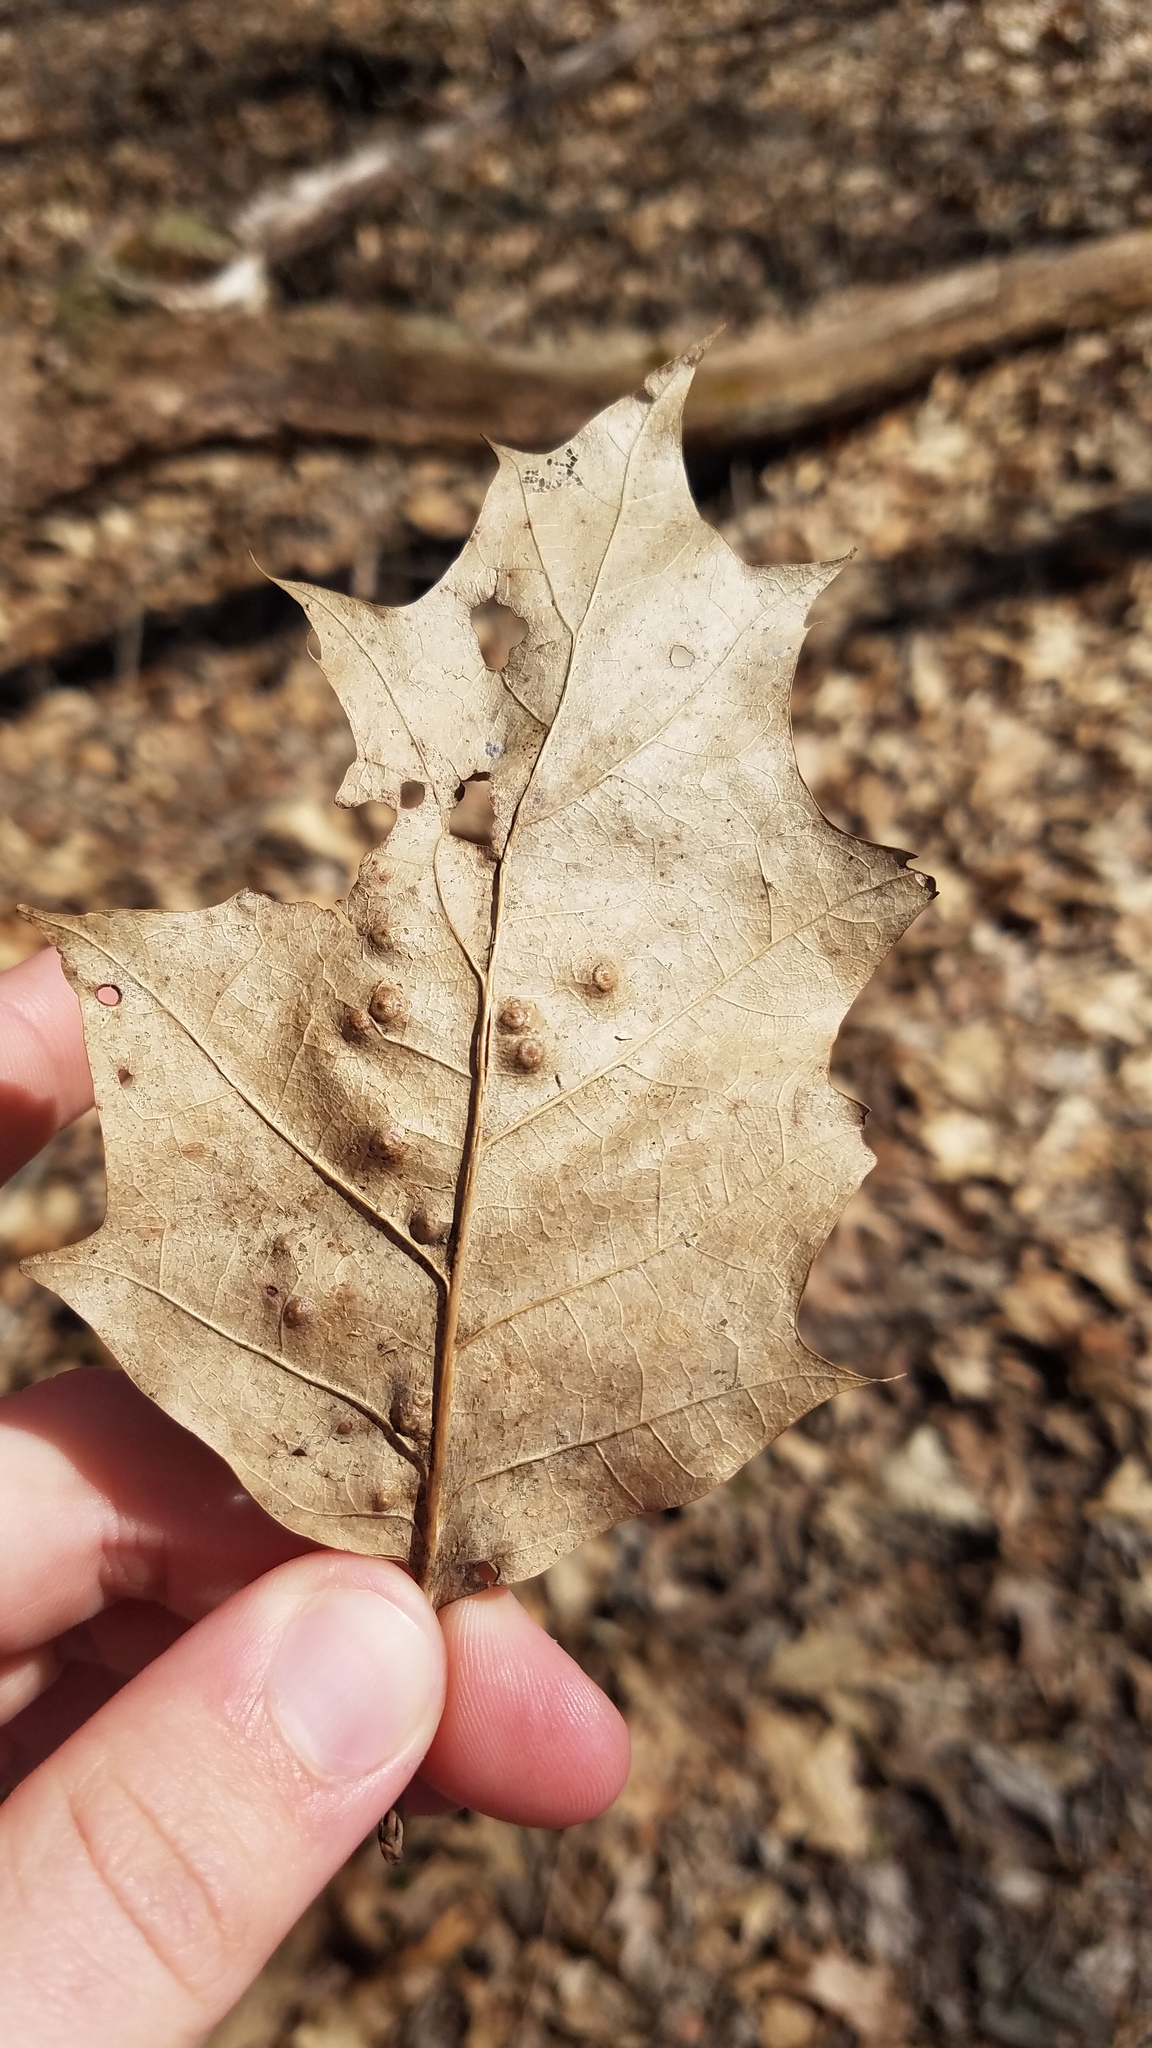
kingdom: Animalia
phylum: Arthropoda
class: Insecta
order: Diptera
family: Cecidomyiidae
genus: Polystepha
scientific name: Polystepha pilulae
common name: Oak leaf gall midge
